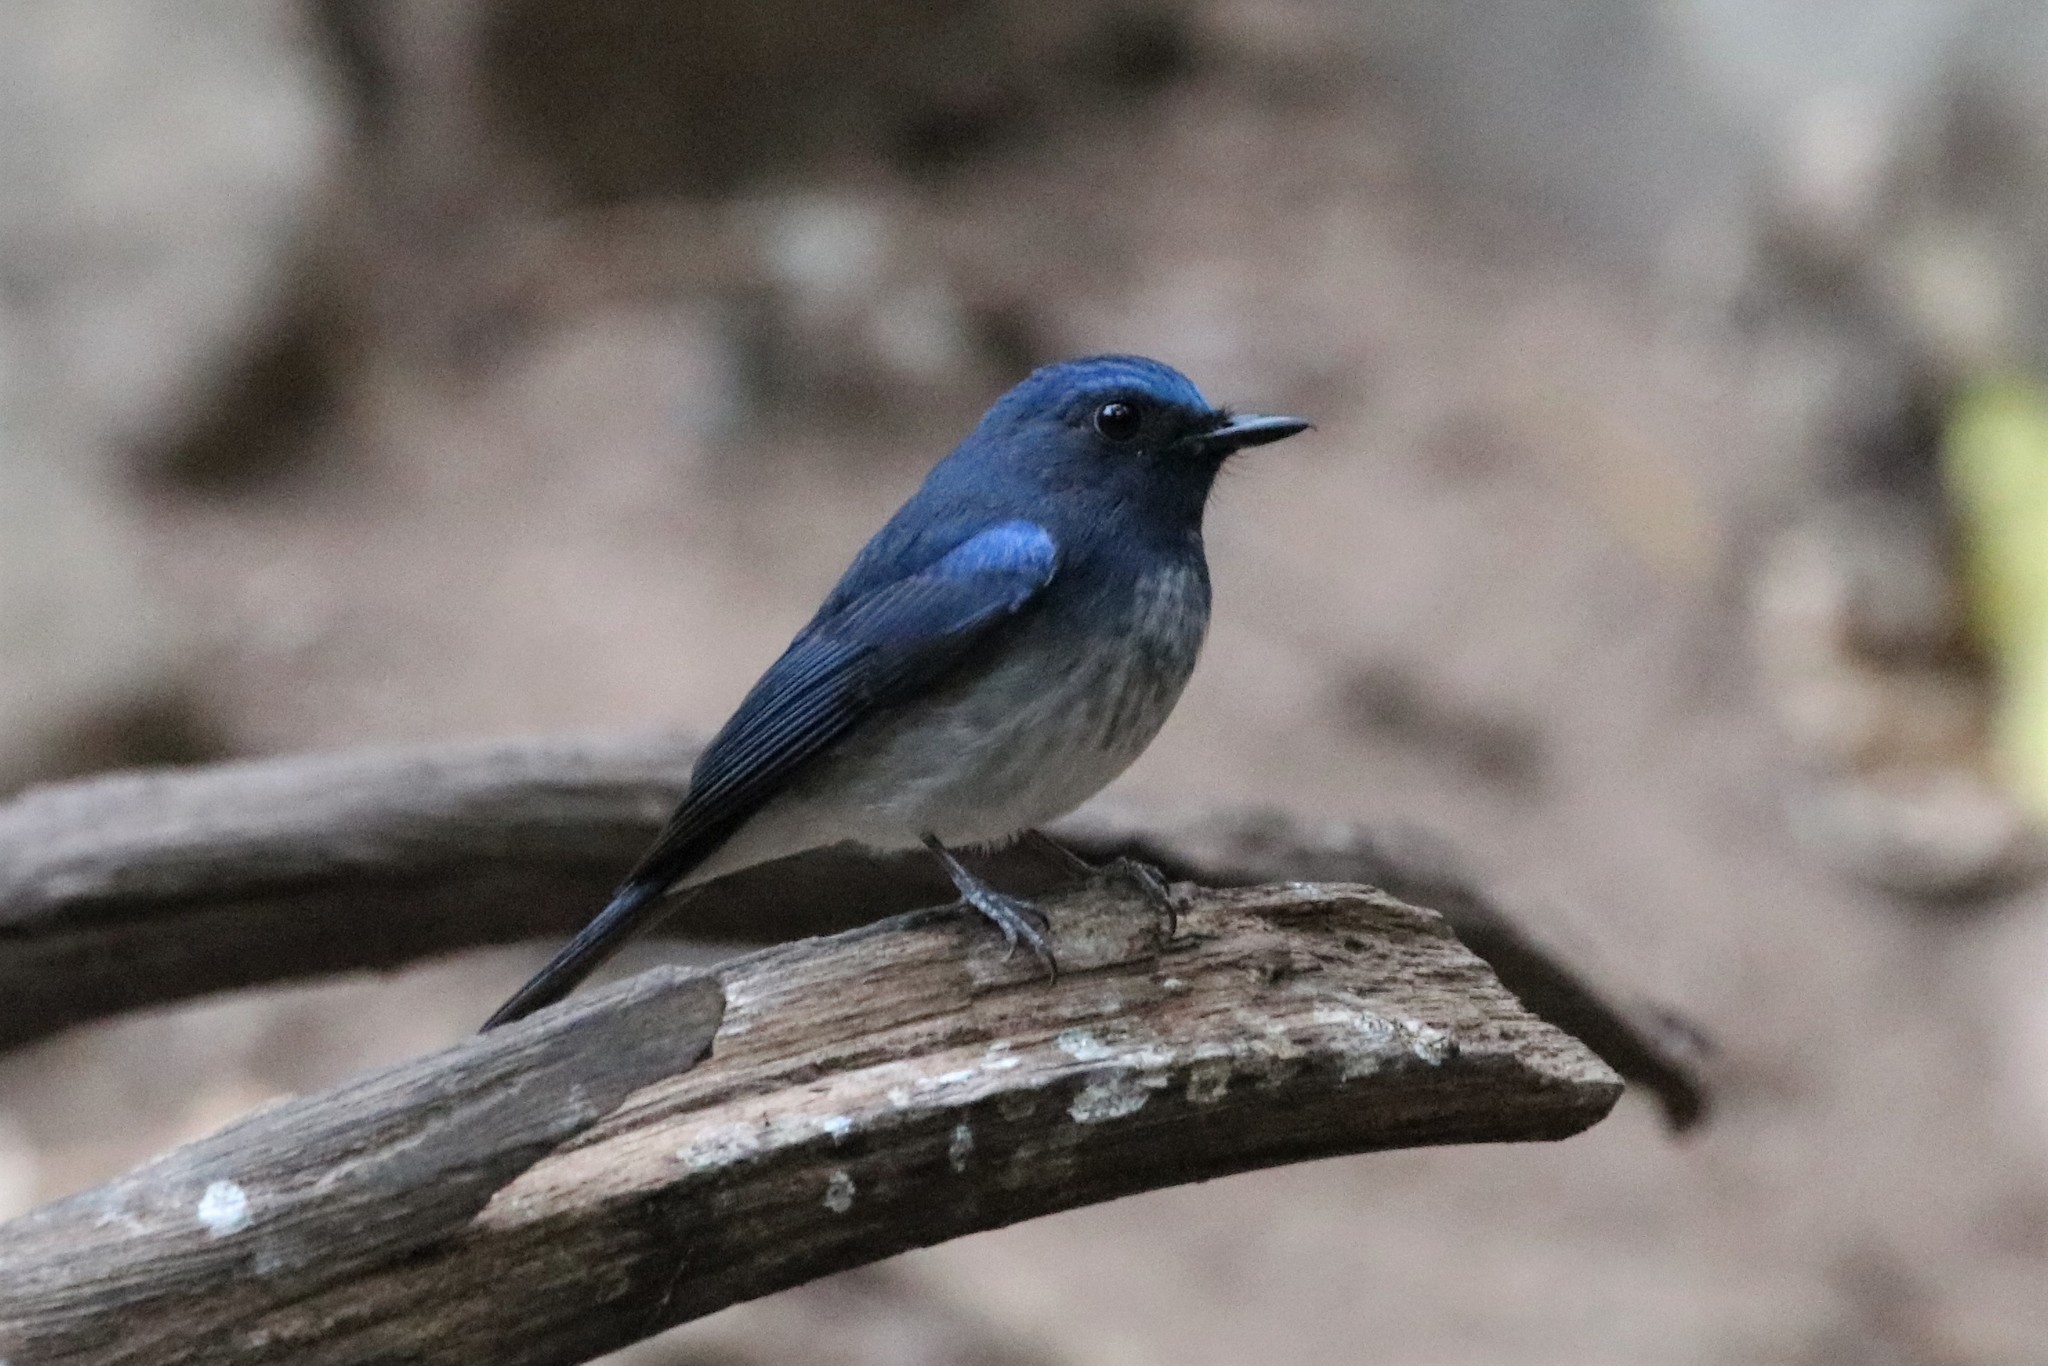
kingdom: Animalia
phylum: Chordata
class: Aves
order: Passeriformes
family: Muscicapidae
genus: Cyornis
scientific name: Cyornis hainanus
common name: Hainan blue flycatcher
